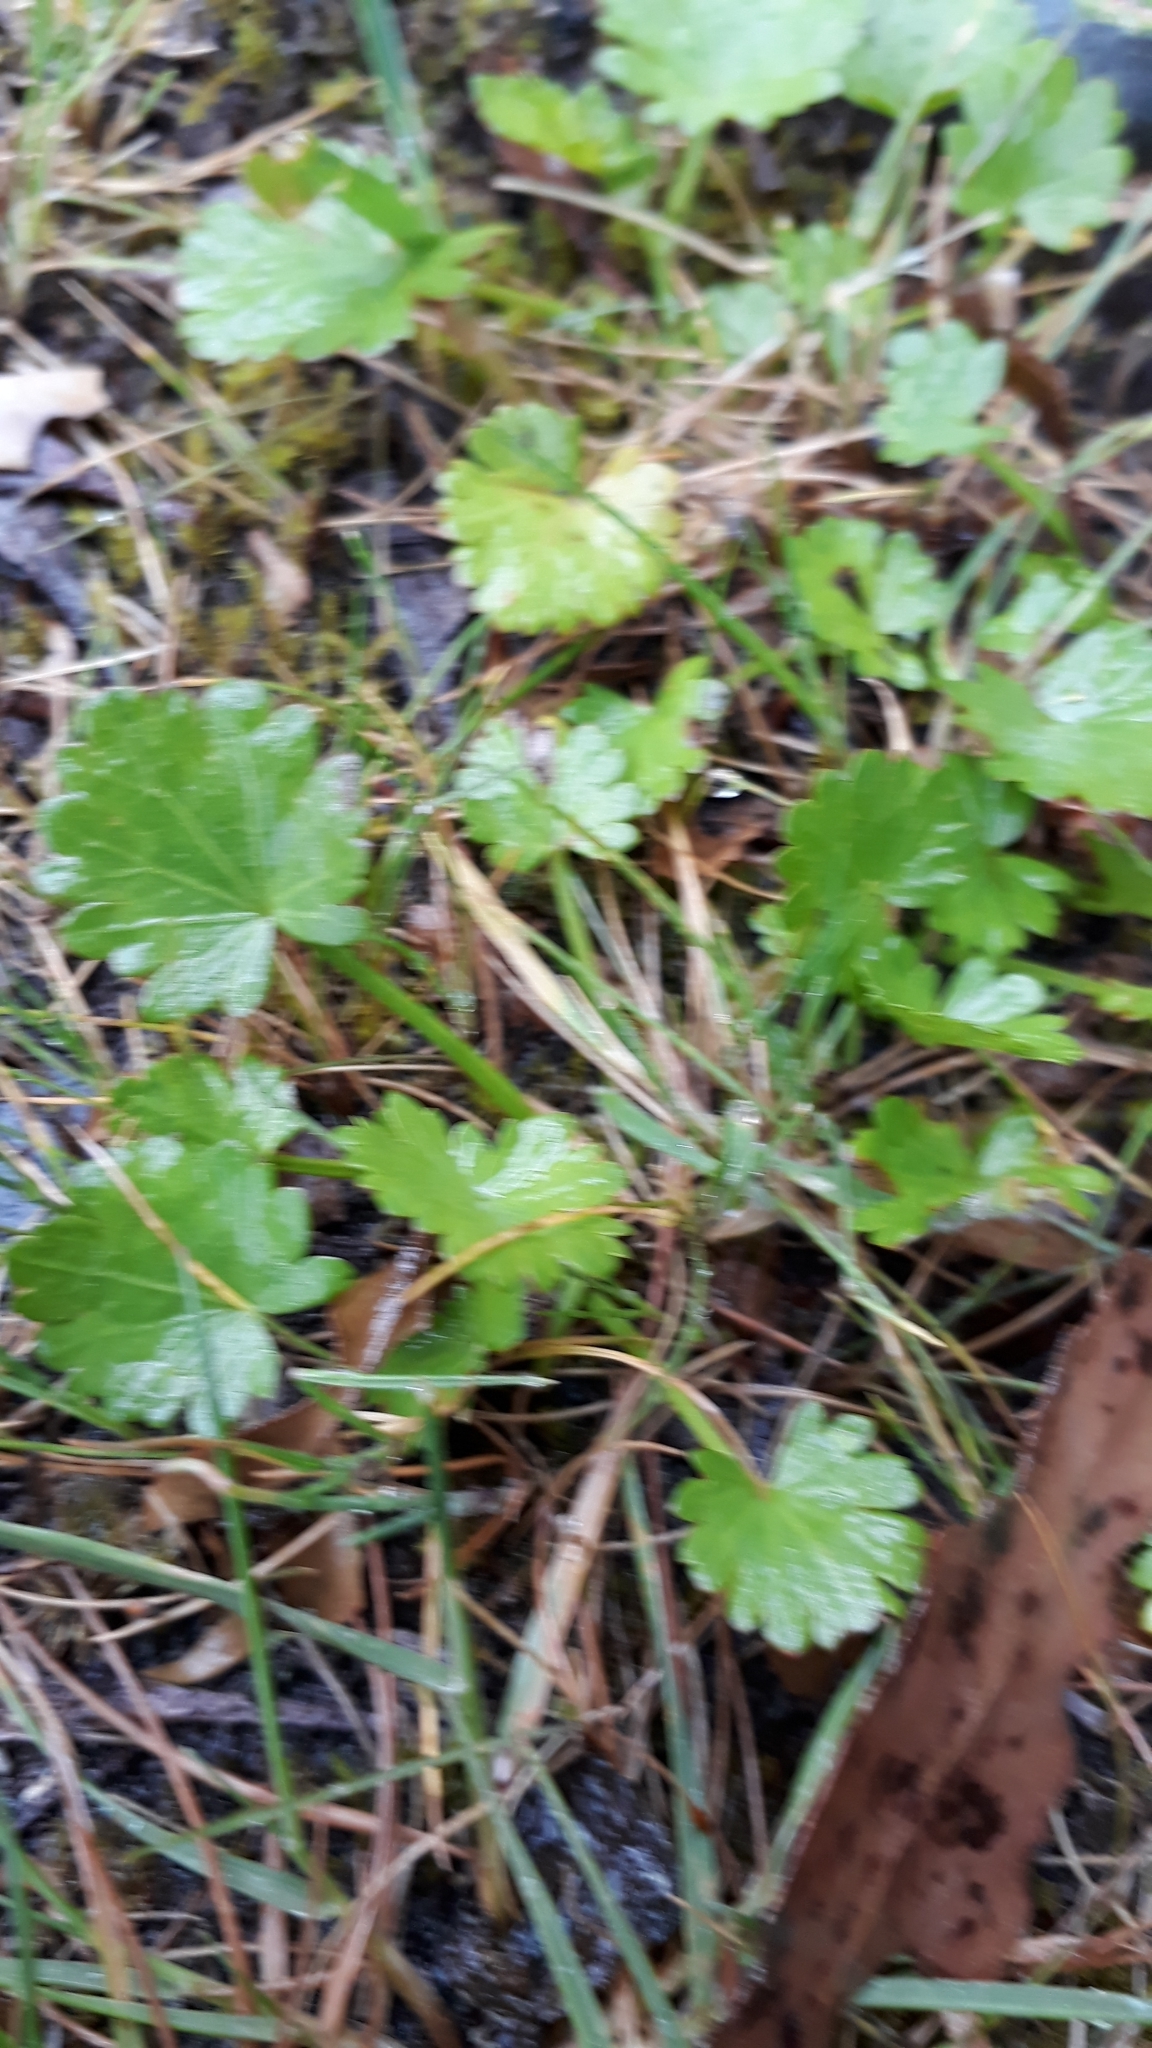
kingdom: Plantae
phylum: Tracheophyta
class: Magnoliopsida
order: Malvales
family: Malvaceae
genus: Modiola
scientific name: Modiola caroliniana
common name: Carolina bristlemallow
